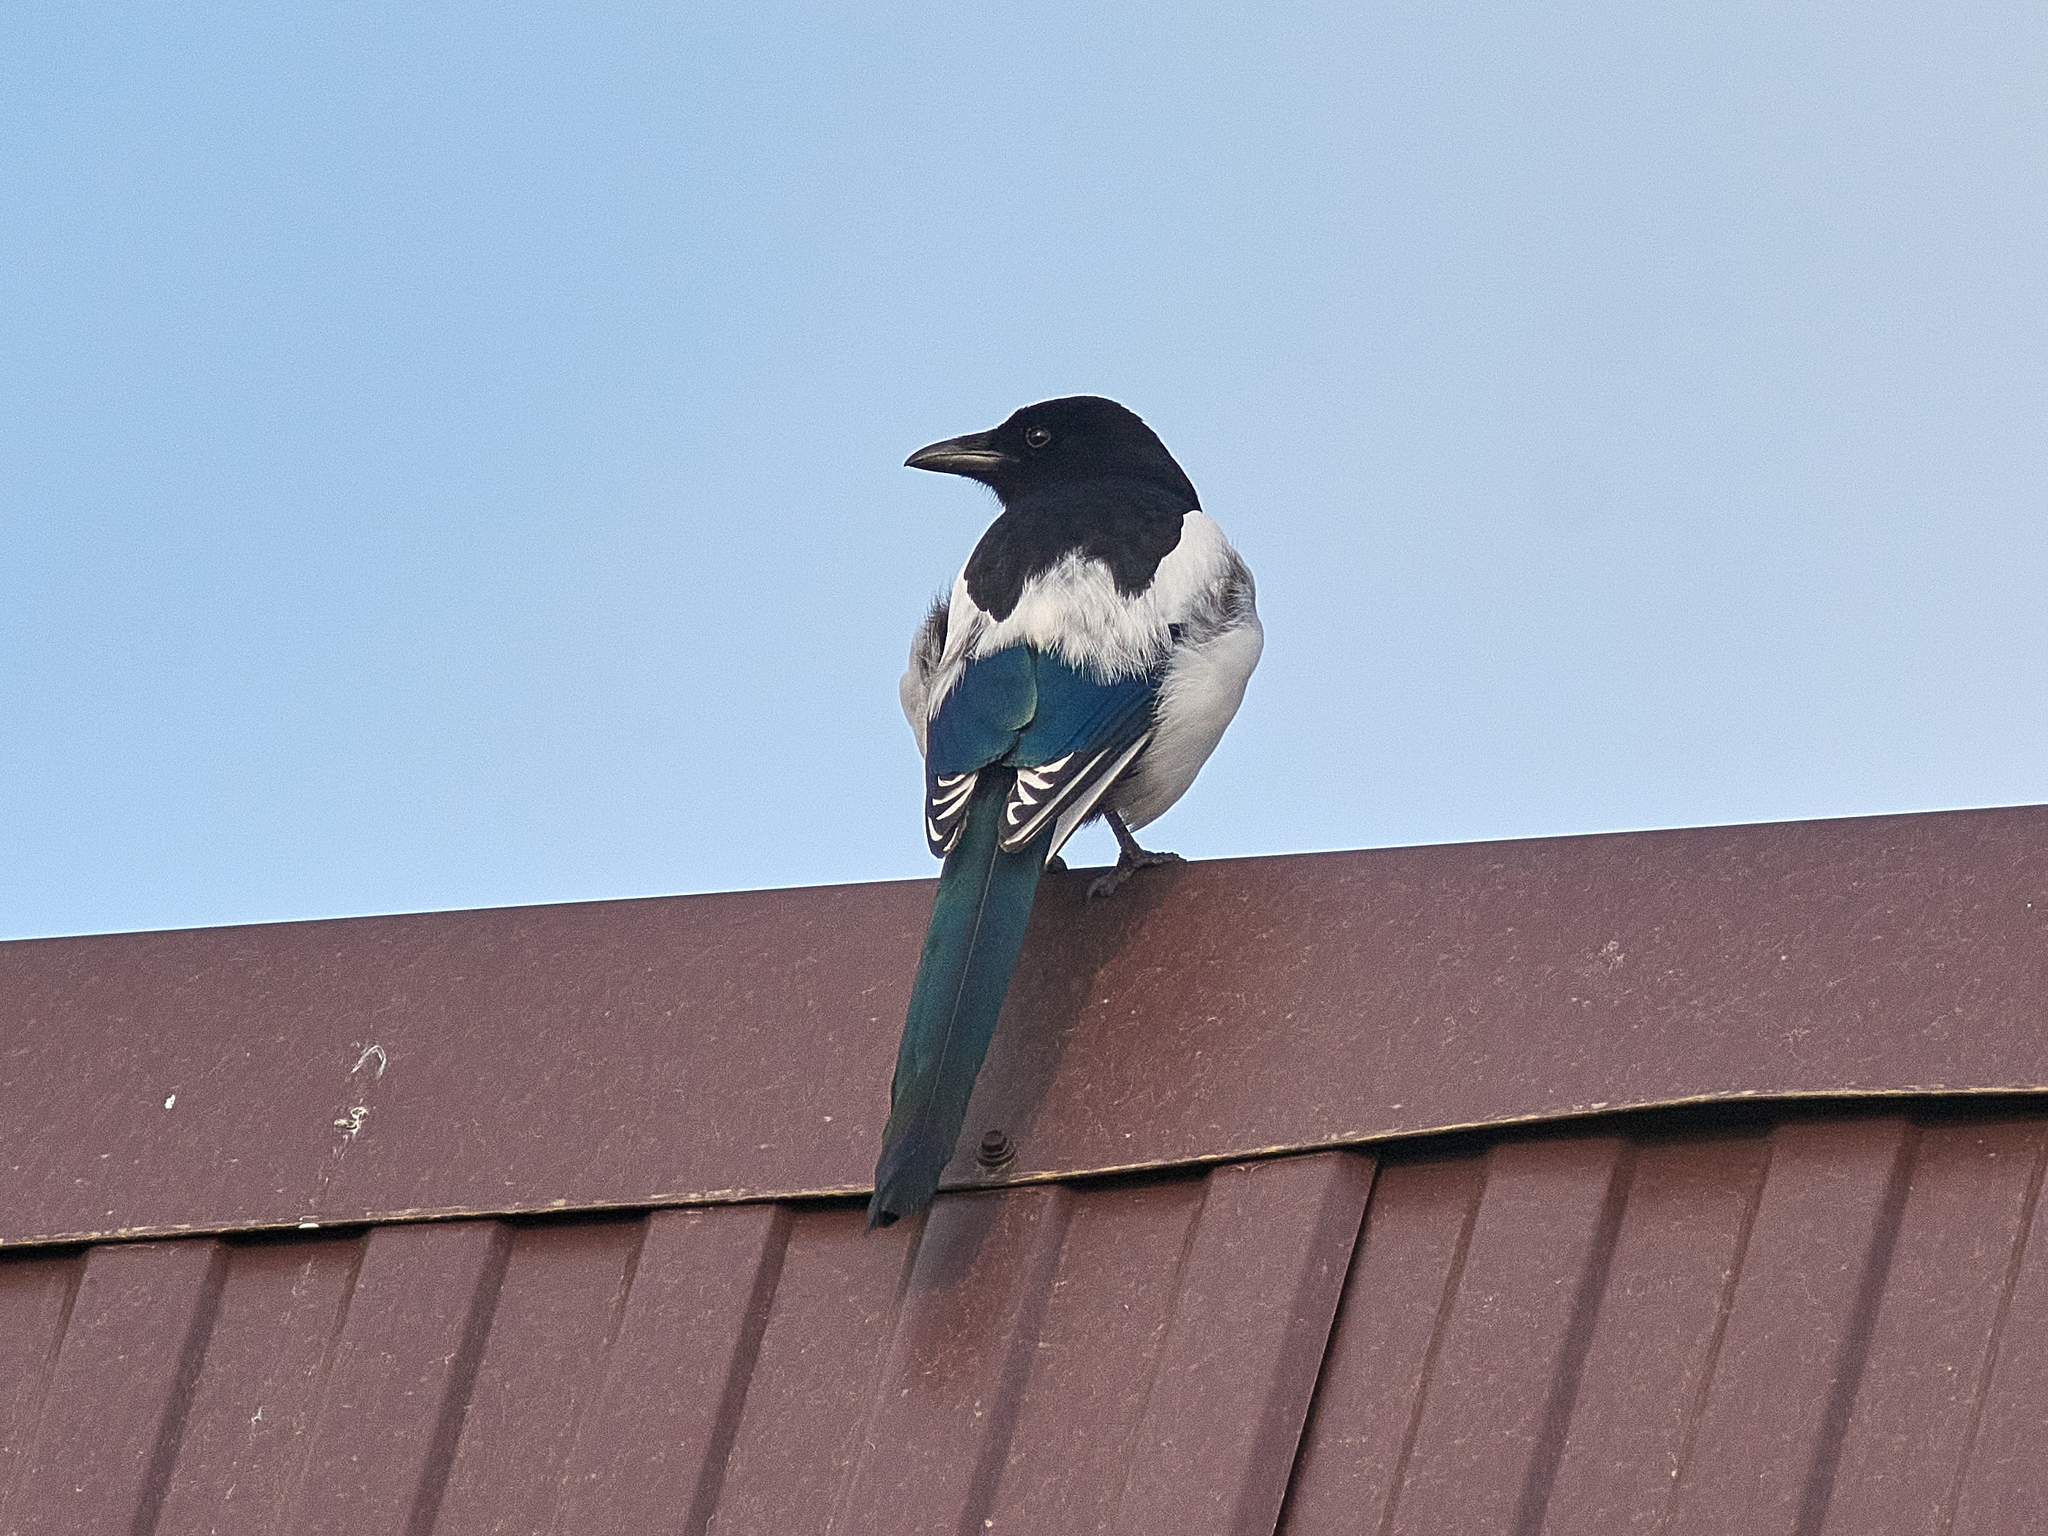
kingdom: Animalia
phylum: Chordata
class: Aves
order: Passeriformes
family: Corvidae
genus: Pica
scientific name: Pica pica
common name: Eurasian magpie
